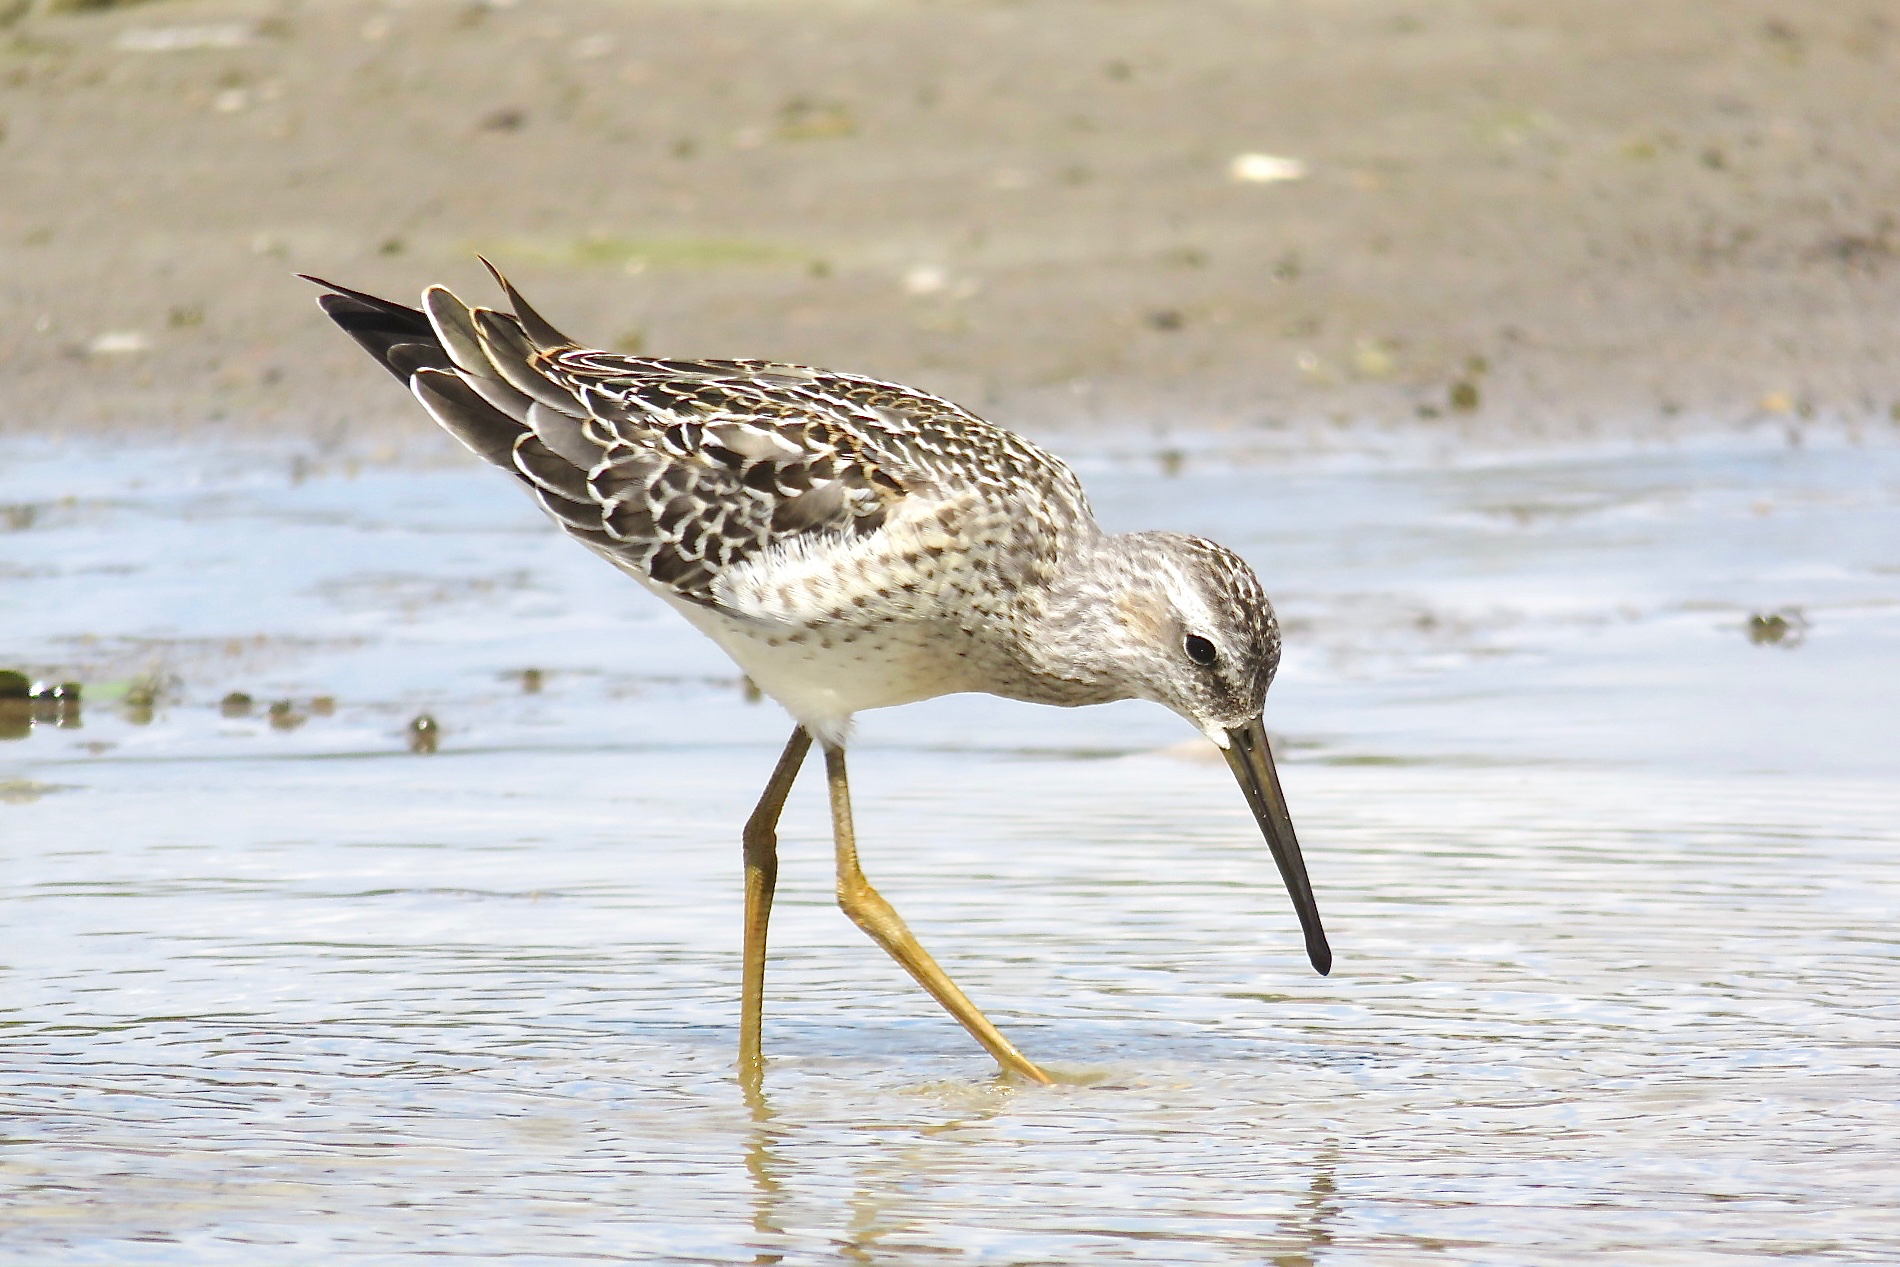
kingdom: Animalia
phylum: Chordata
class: Aves
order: Charadriiformes
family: Scolopacidae
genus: Calidris
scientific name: Calidris himantopus
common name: Stilt sandpiper
